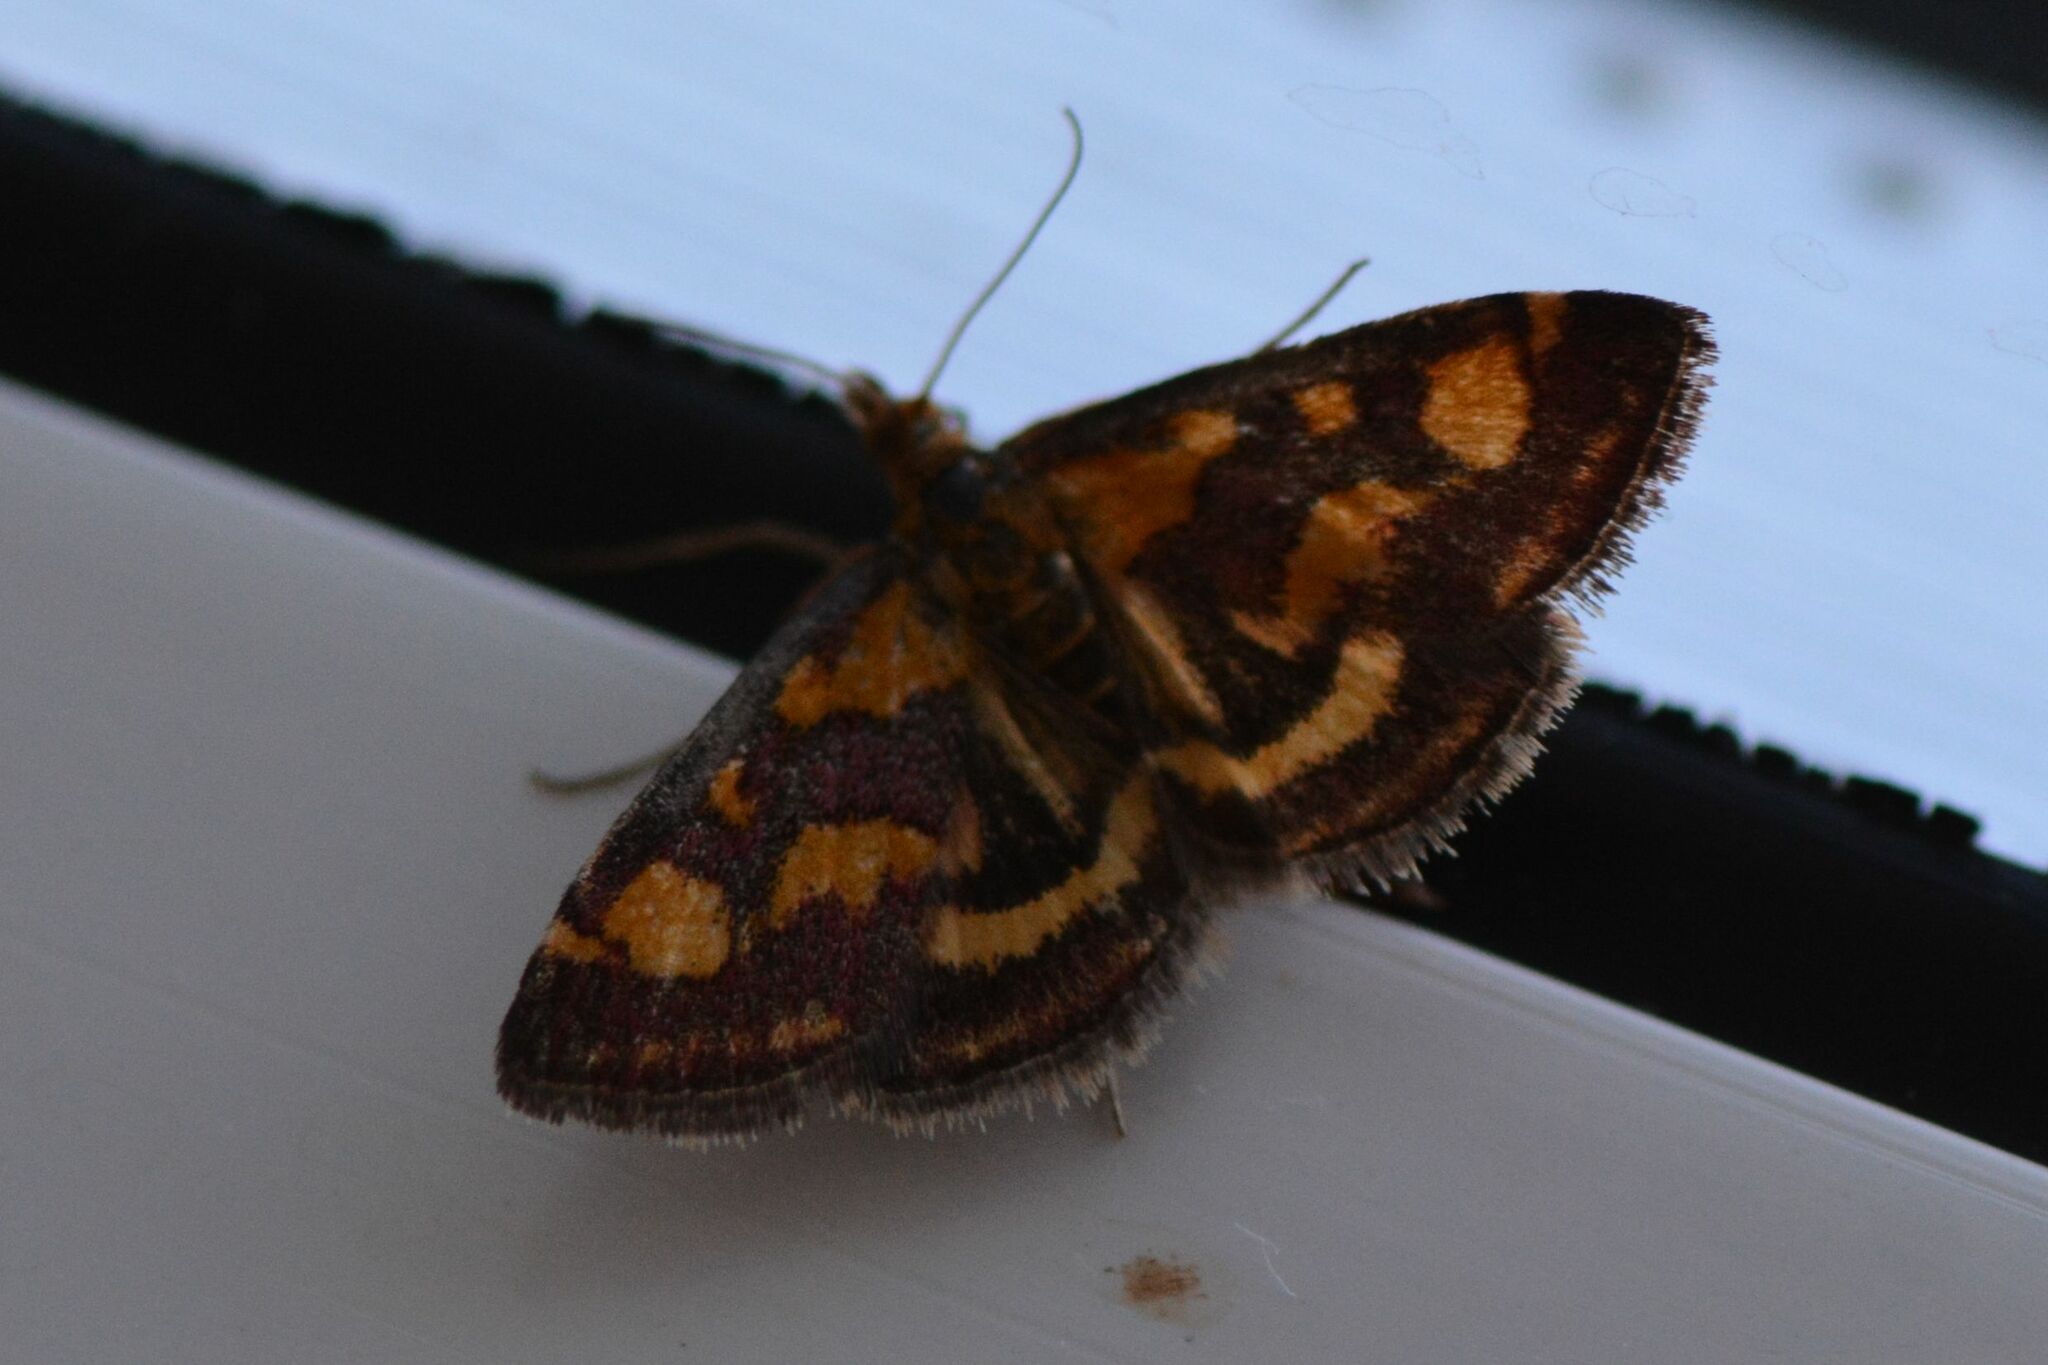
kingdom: Animalia
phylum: Arthropoda
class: Insecta
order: Lepidoptera
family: Crambidae
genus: Pyrausta
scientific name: Pyrausta purpuralis
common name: Common purple & gold
